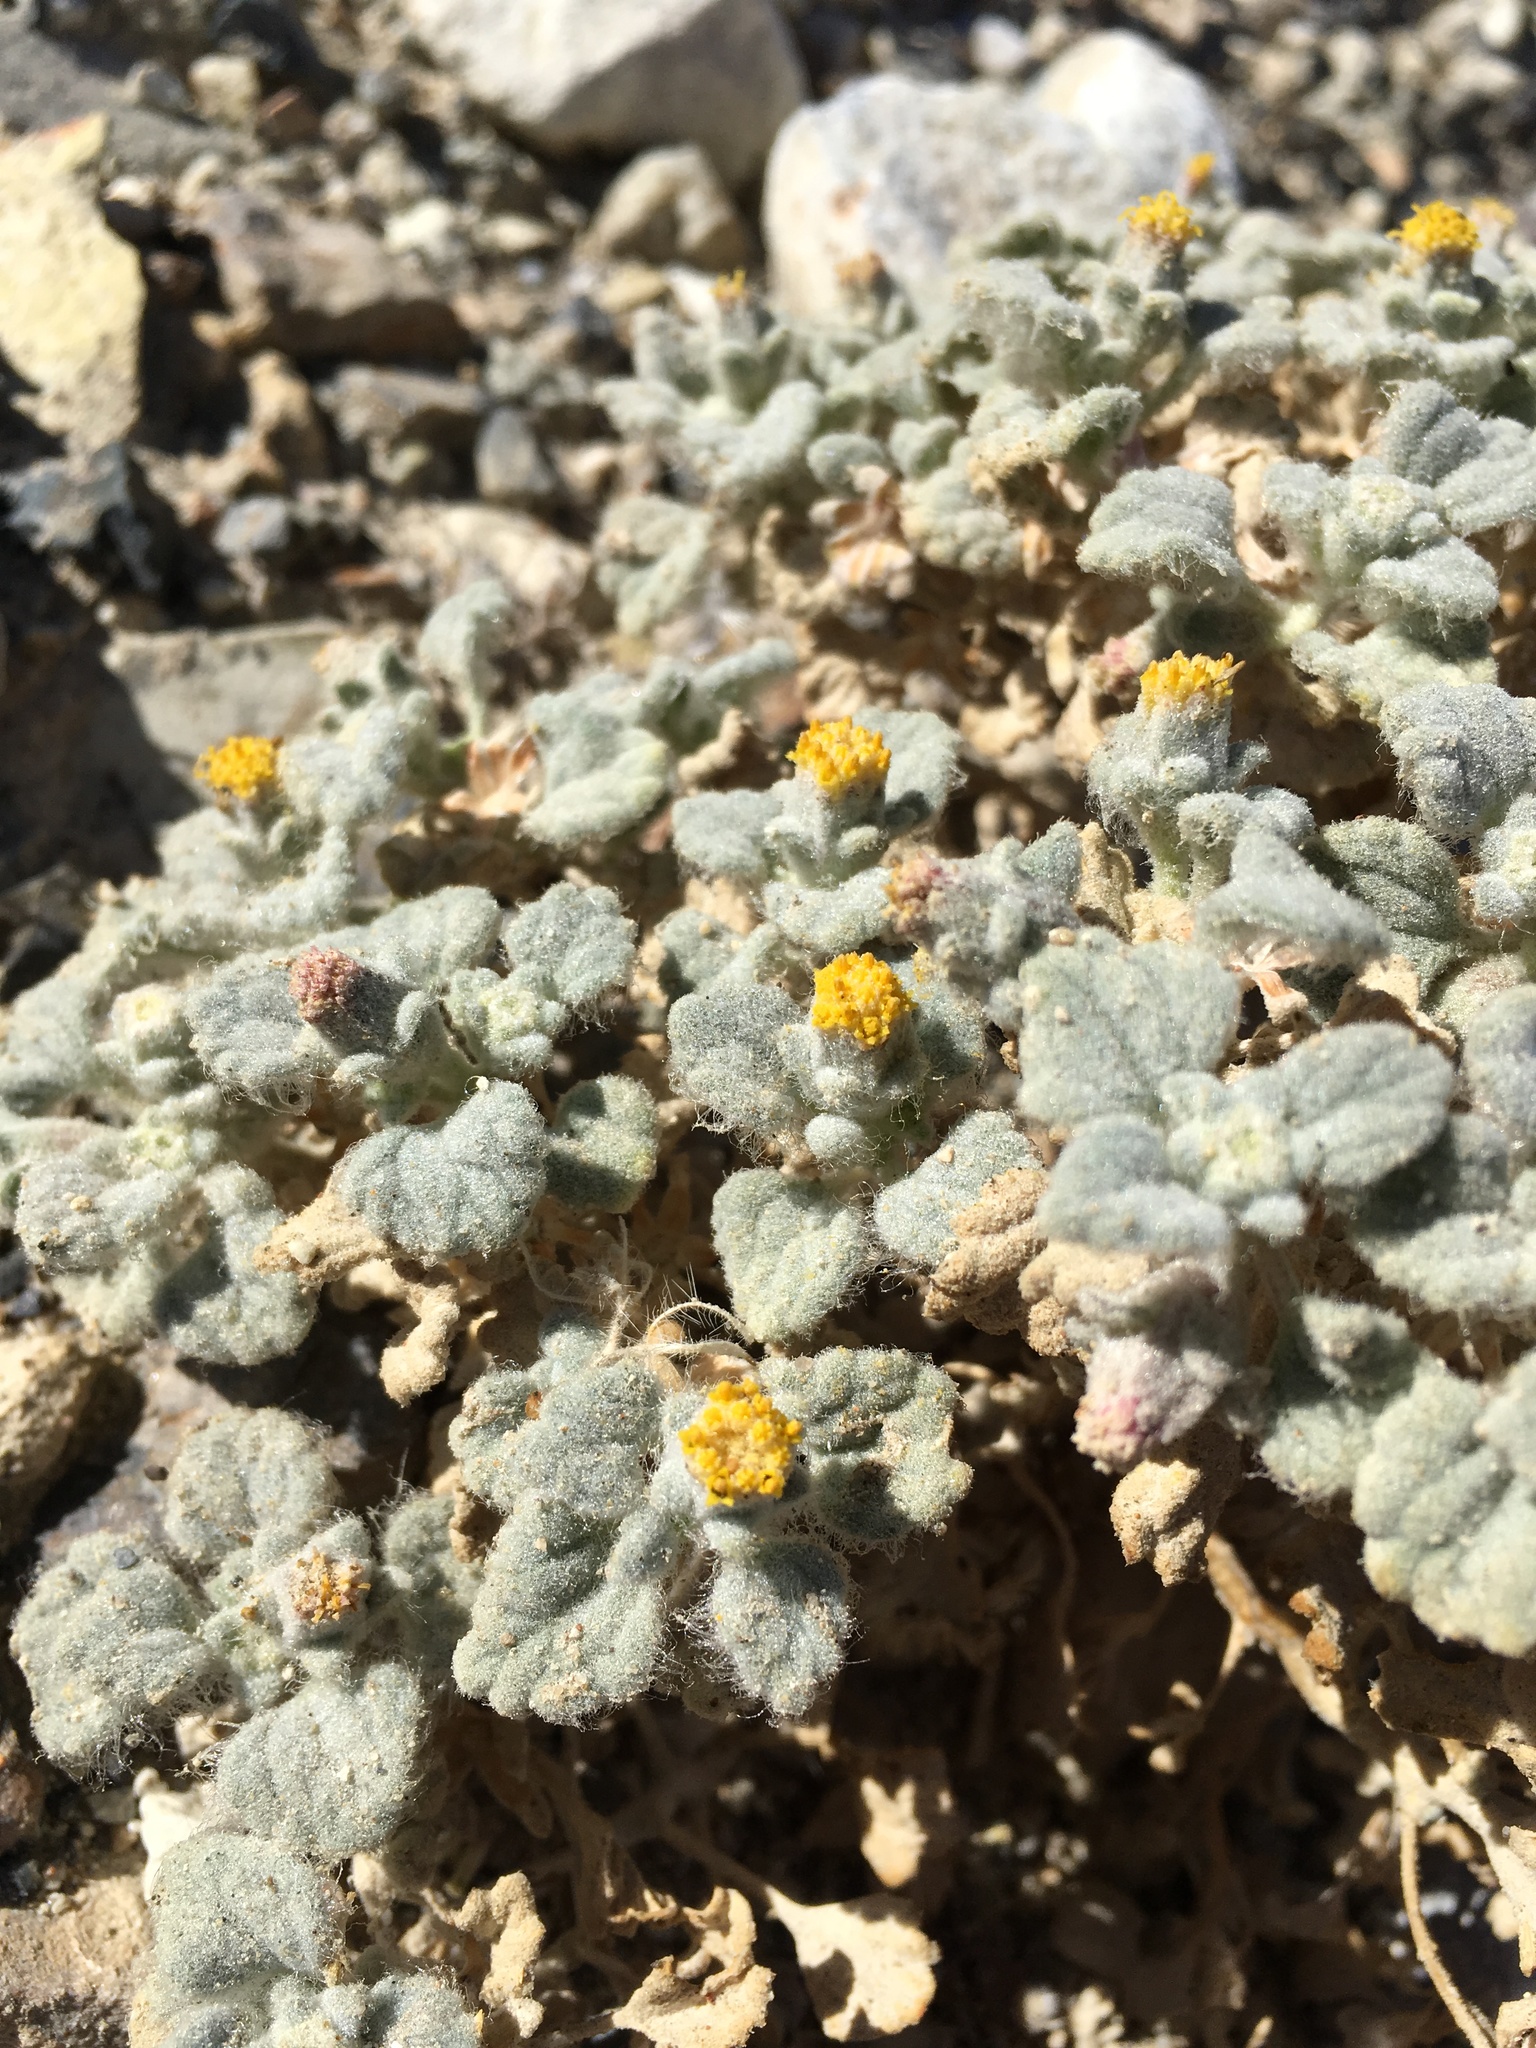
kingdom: Plantae
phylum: Tracheophyta
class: Magnoliopsida
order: Asterales
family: Asteraceae
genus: Psathyrotes
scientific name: Psathyrotes ramosissima
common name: Turtleback
